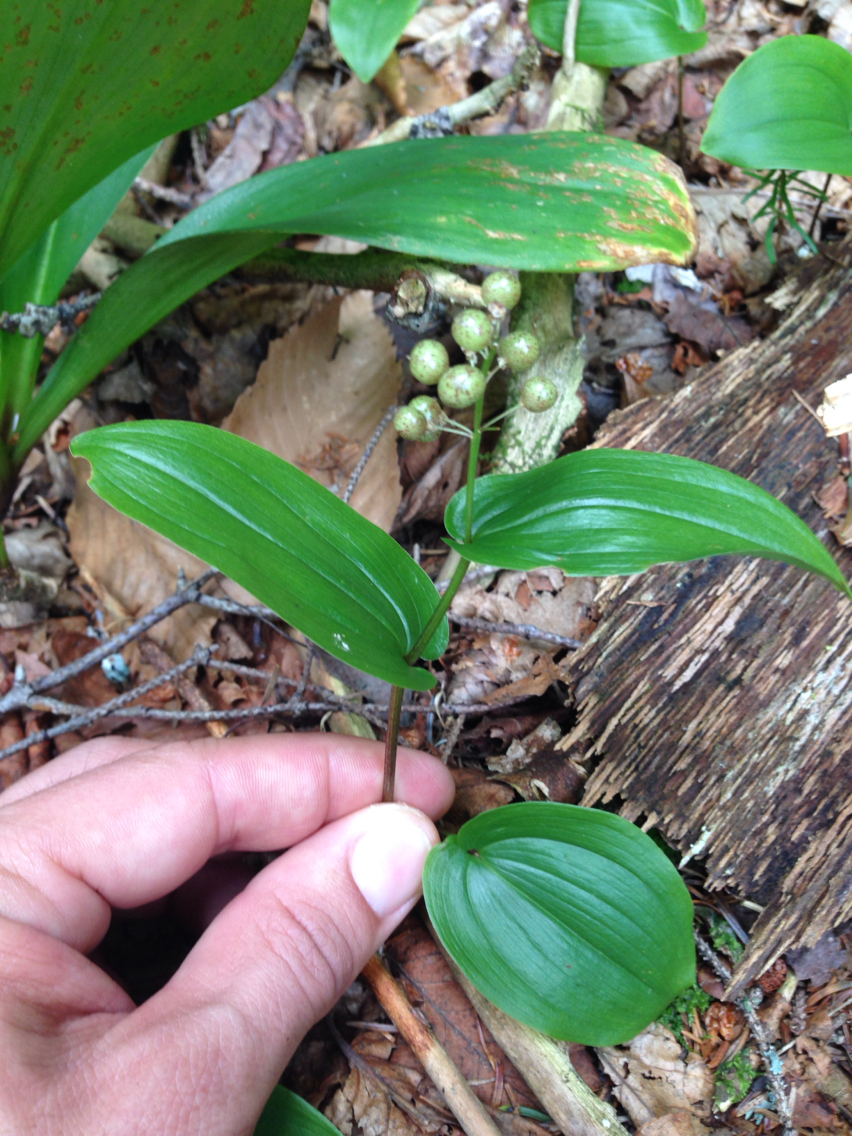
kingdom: Plantae
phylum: Tracheophyta
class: Liliopsida
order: Asparagales
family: Asparagaceae
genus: Maianthemum
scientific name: Maianthemum canadense
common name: False lily-of-the-valley
